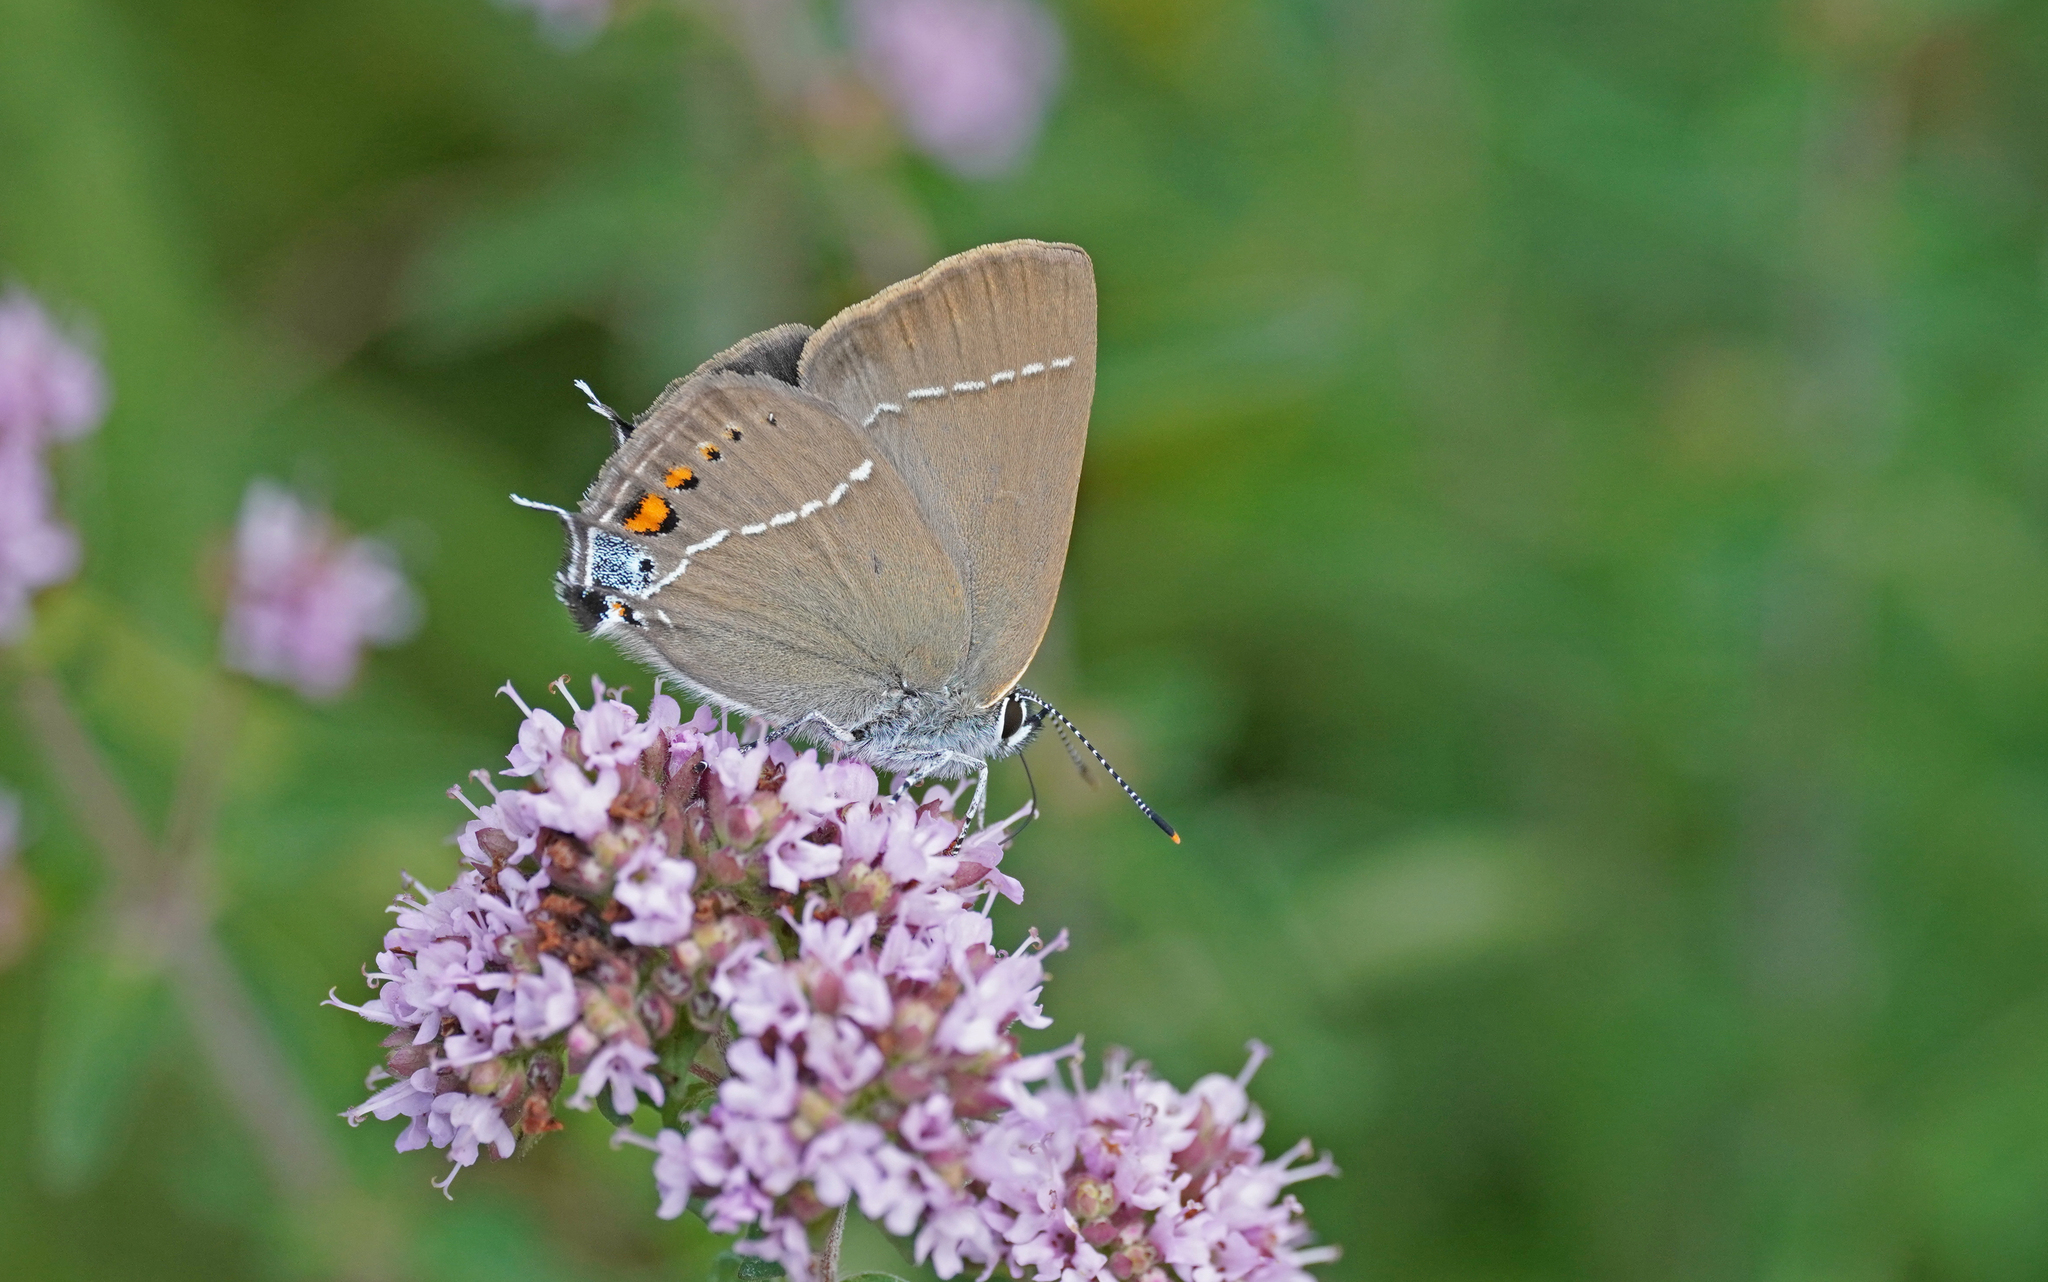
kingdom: Animalia
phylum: Arthropoda
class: Insecta
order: Lepidoptera
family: Lycaenidae
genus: Tuttiola
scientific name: Tuttiola spini
